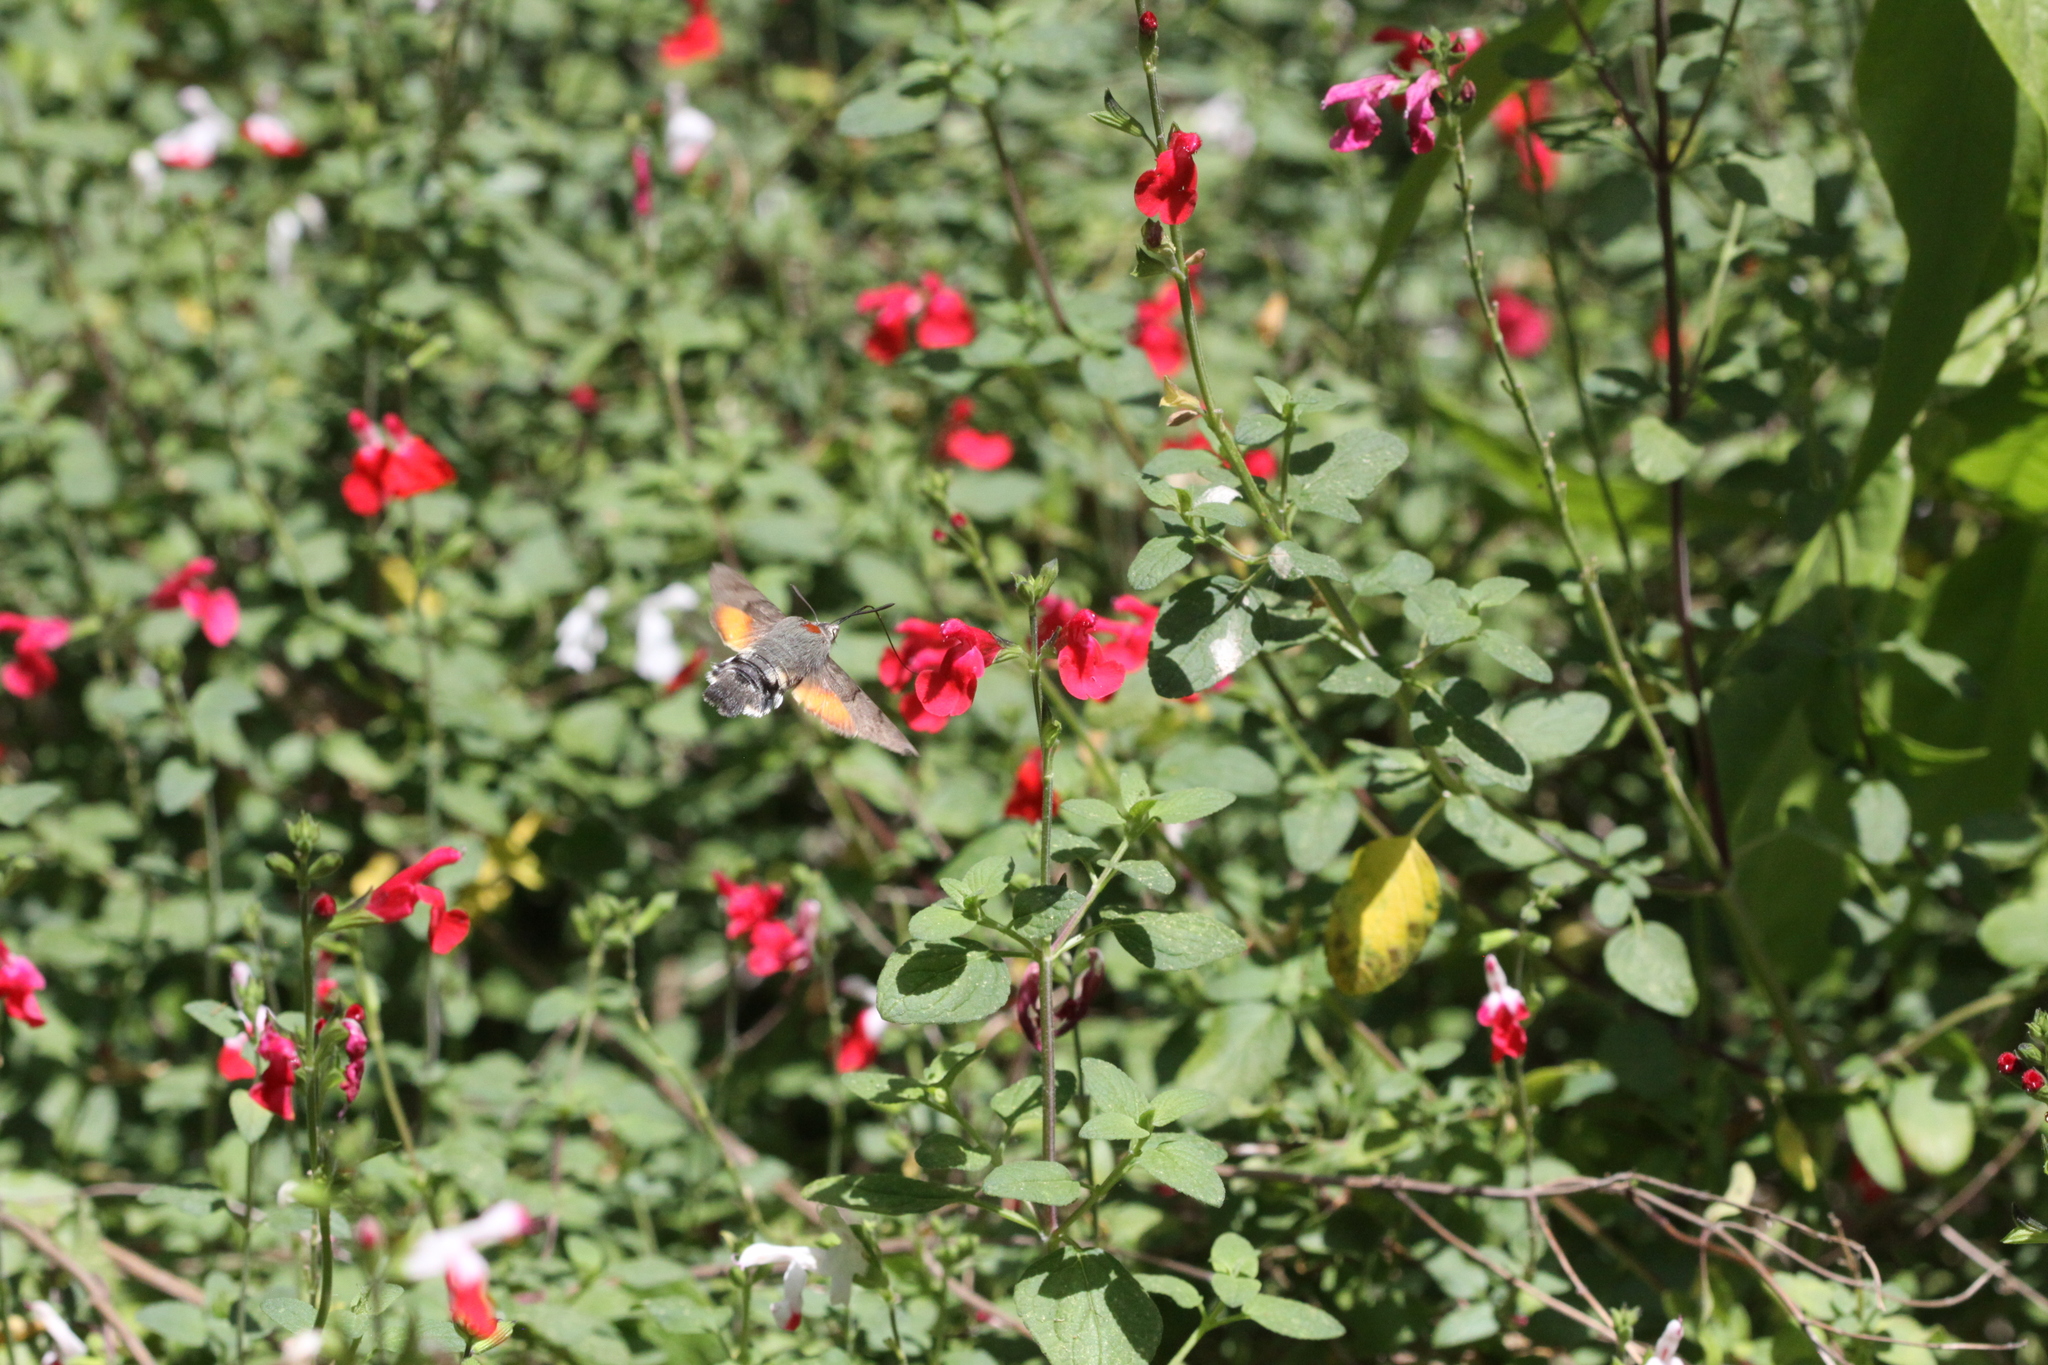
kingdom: Animalia
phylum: Arthropoda
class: Insecta
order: Lepidoptera
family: Sphingidae
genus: Macroglossum
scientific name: Macroglossum stellatarum
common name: Humming-bird hawk-moth
